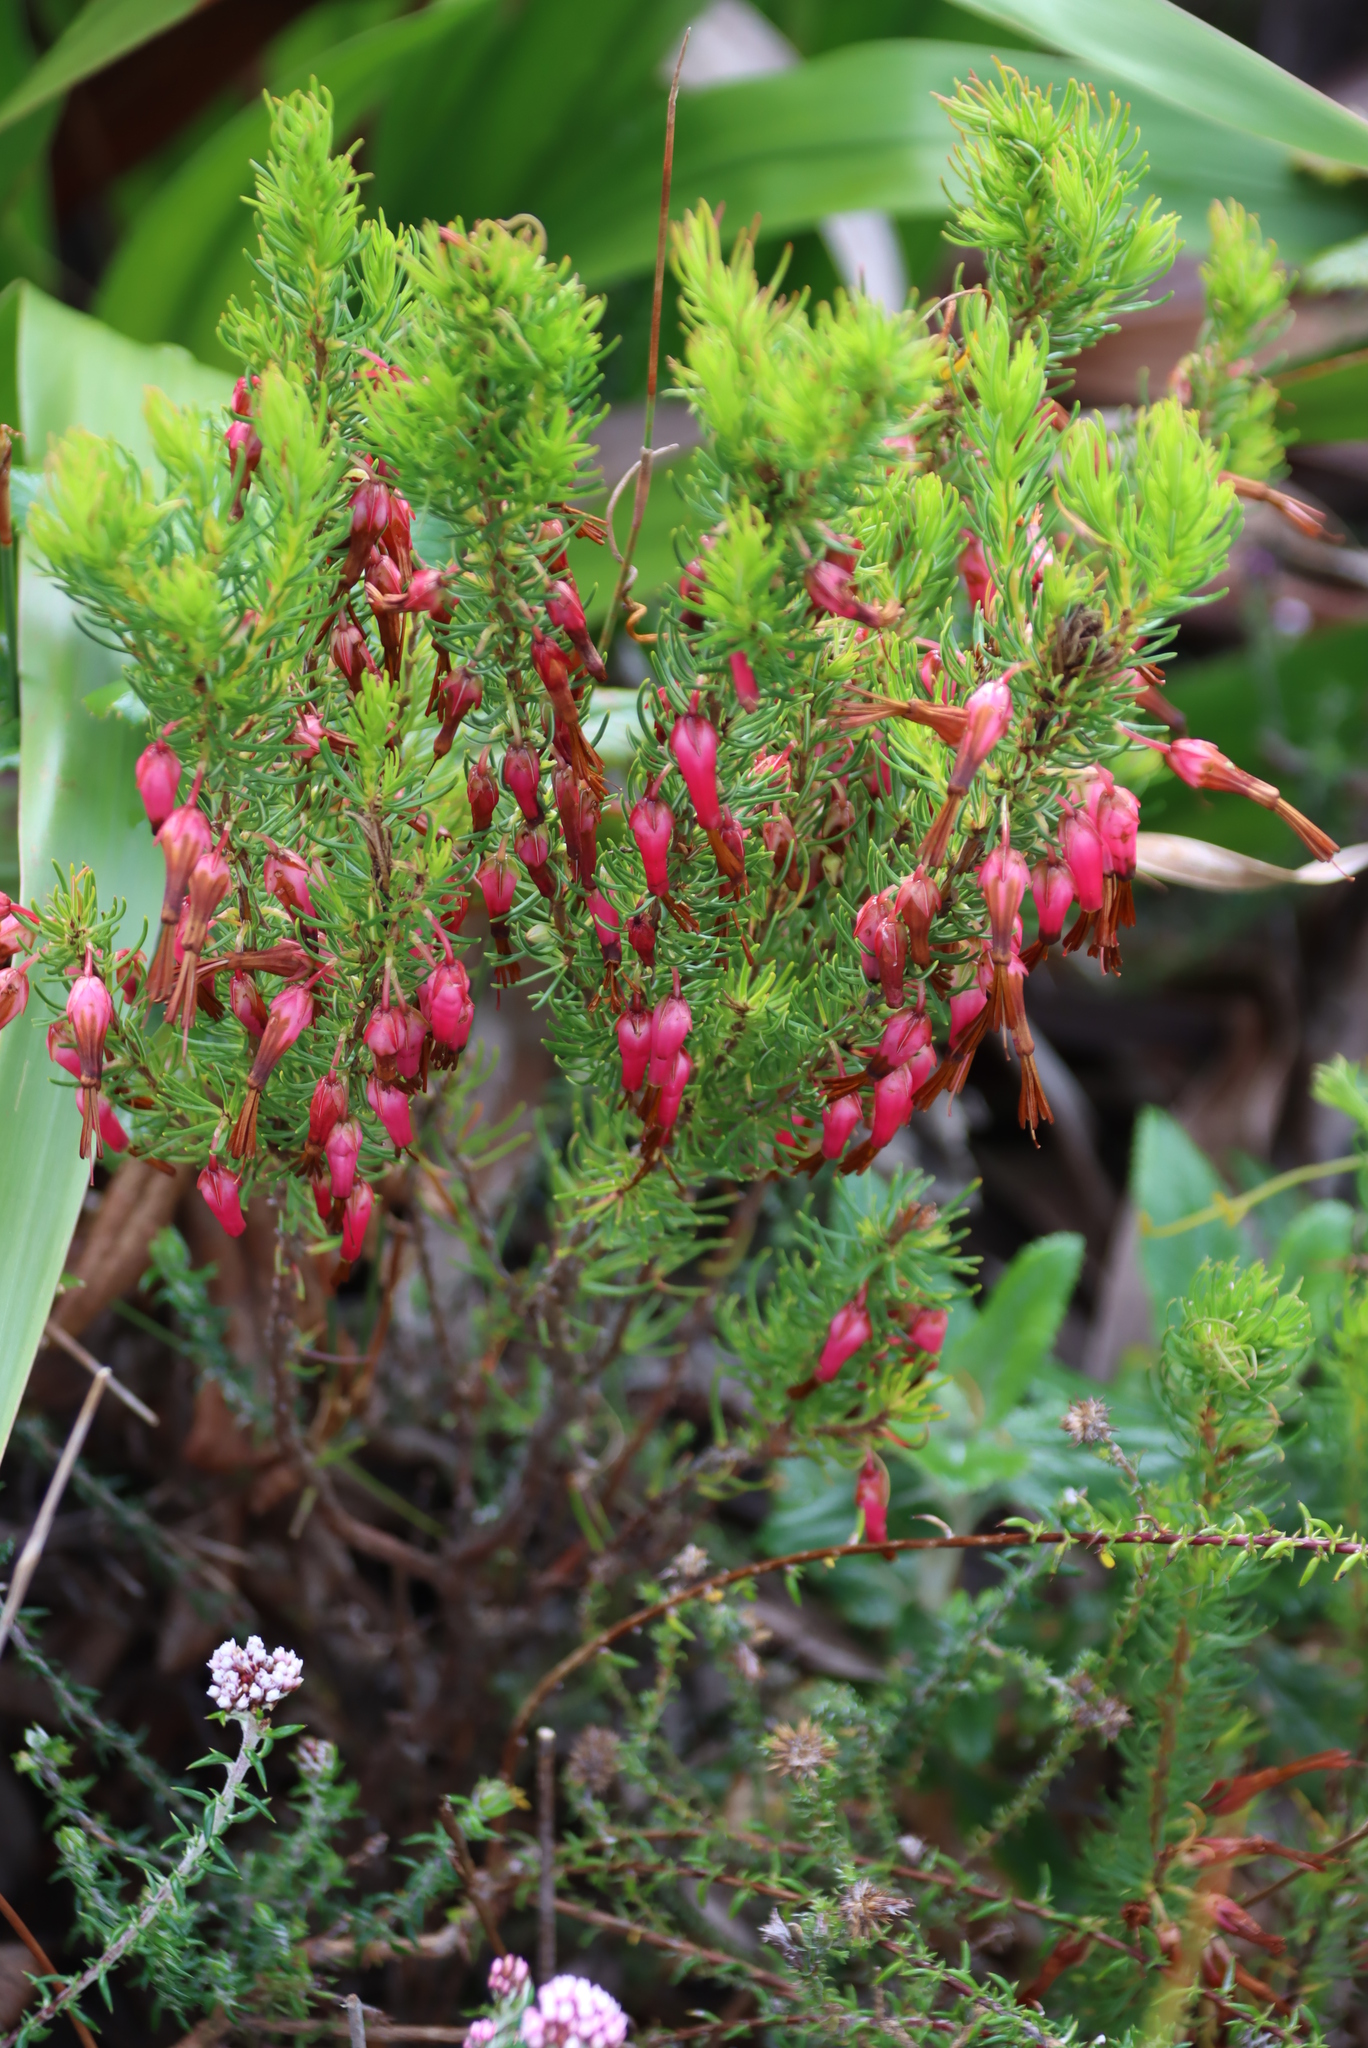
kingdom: Plantae
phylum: Tracheophyta
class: Magnoliopsida
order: Ericales
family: Ericaceae
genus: Erica
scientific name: Erica plukenetii
